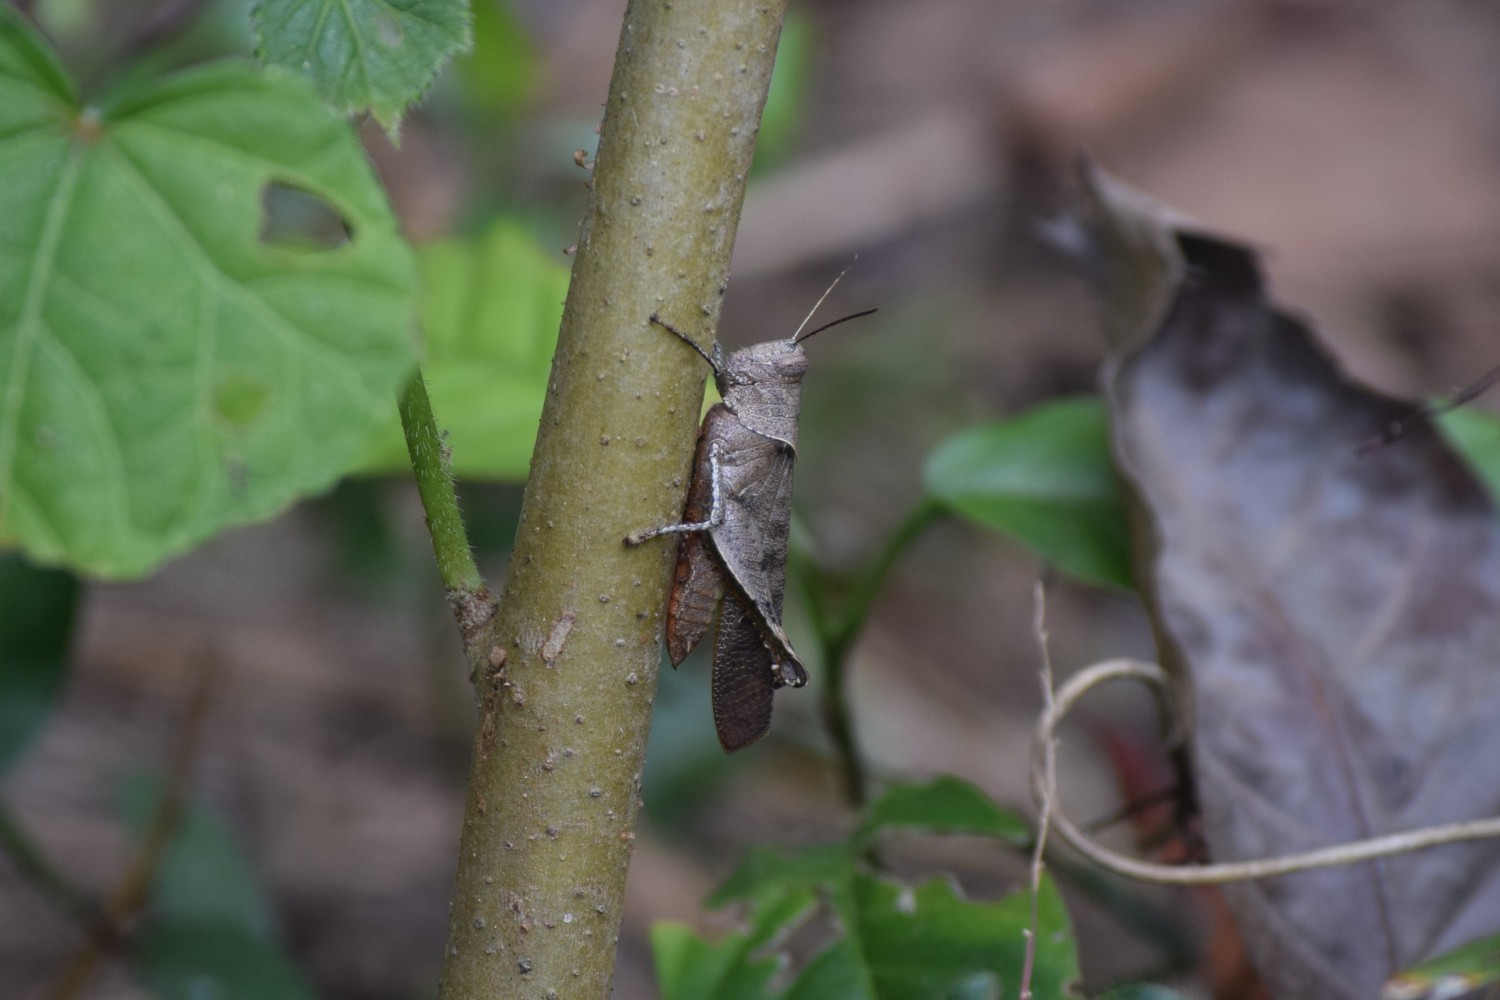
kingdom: Animalia
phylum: Arthropoda
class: Insecta
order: Orthoptera
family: Acrididae
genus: Eucoptacra
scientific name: Eucoptacra binghami
